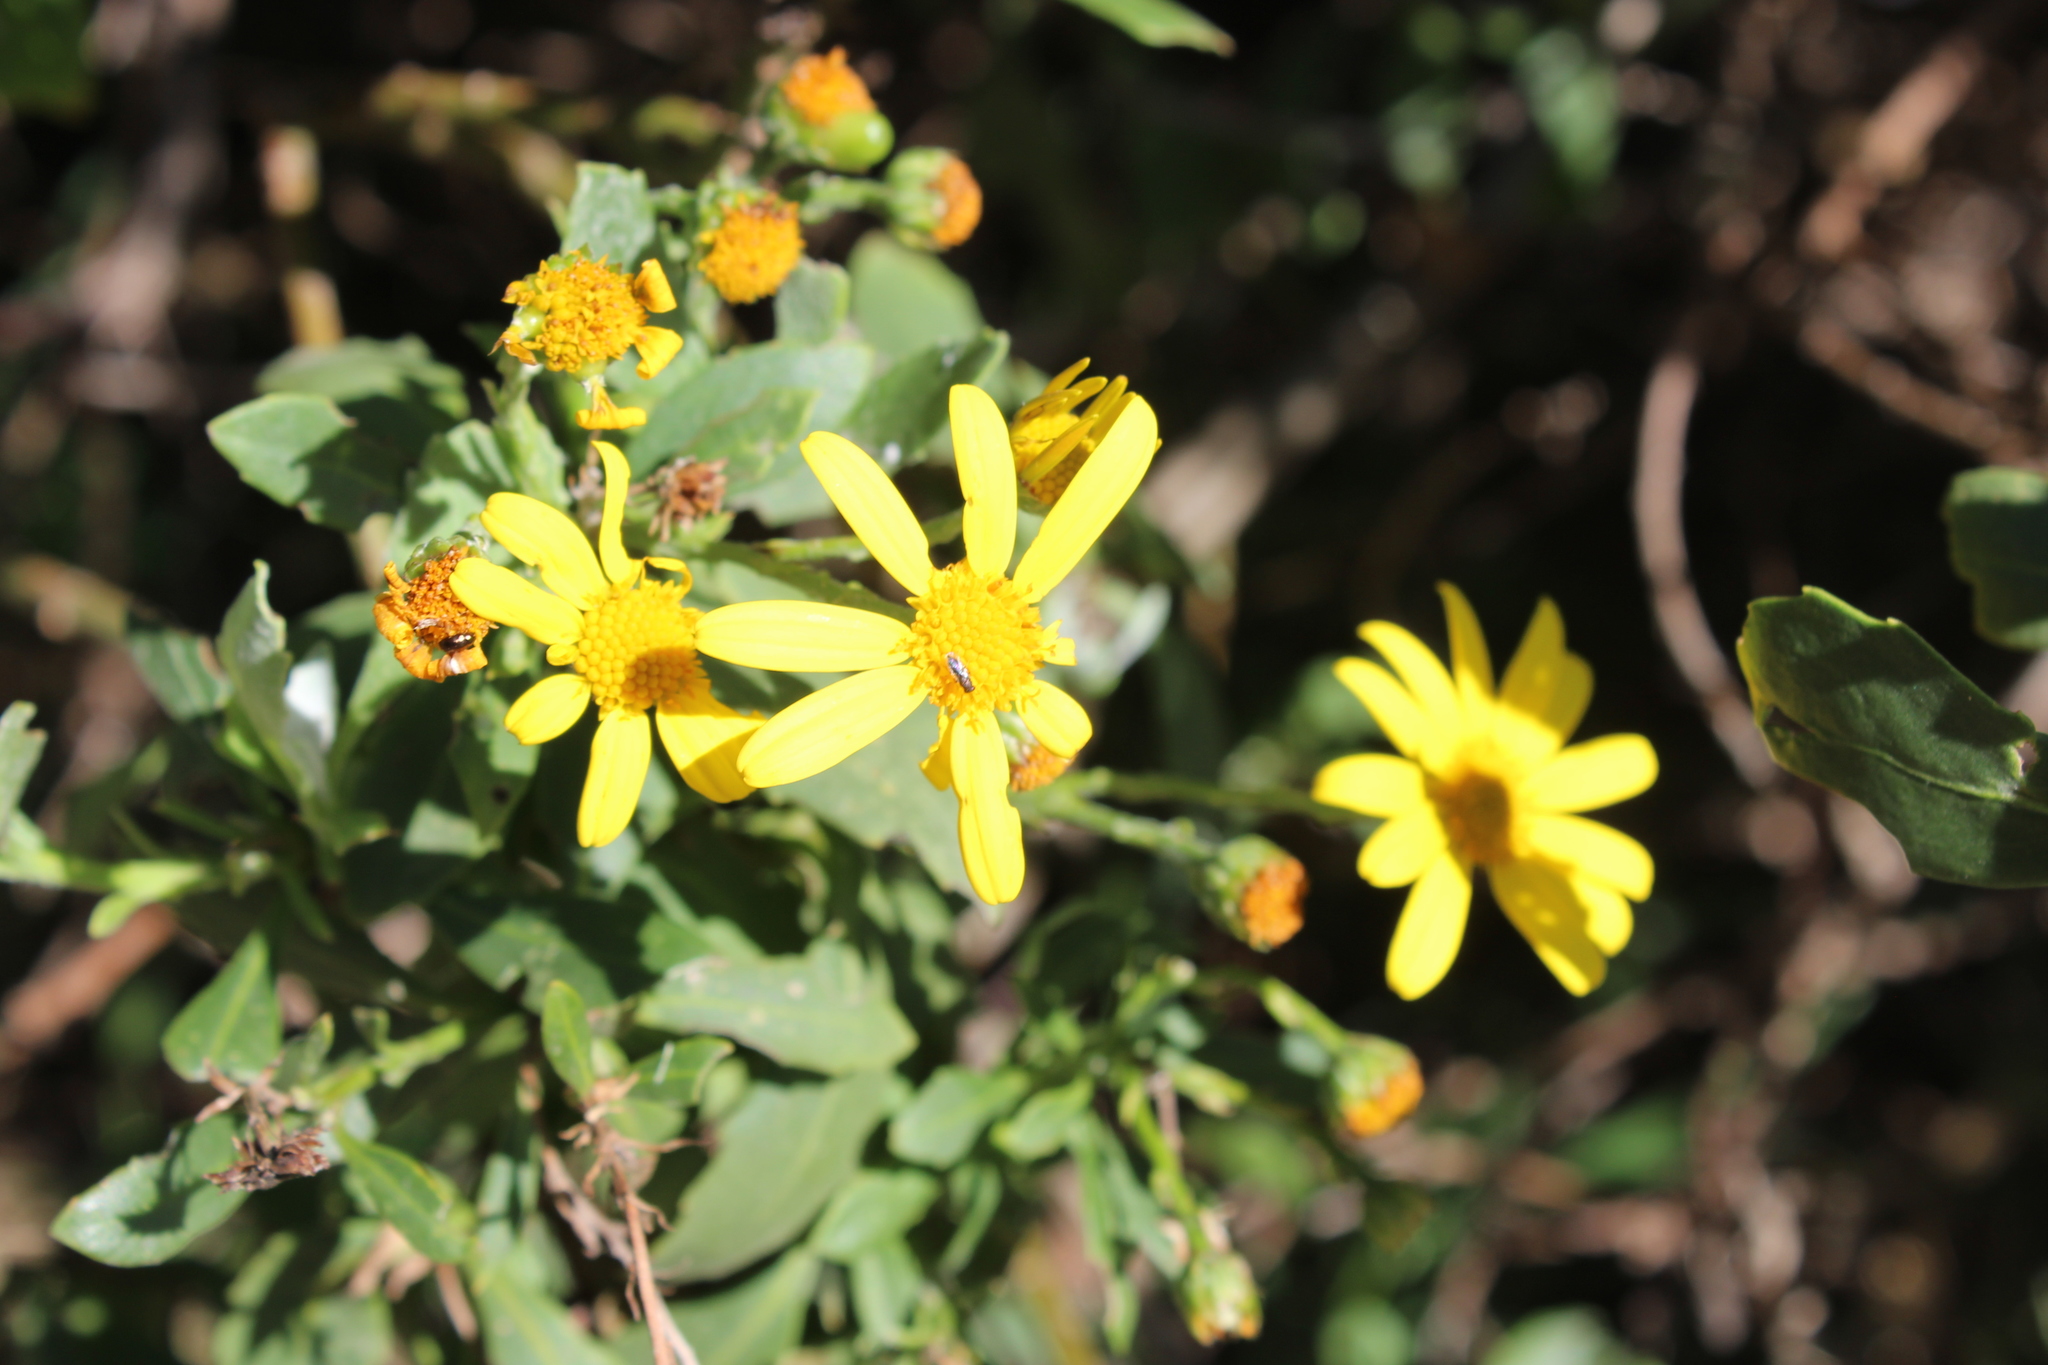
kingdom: Plantae
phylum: Tracheophyta
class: Magnoliopsida
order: Asterales
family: Asteraceae
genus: Osteospermum
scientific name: Osteospermum moniliferum
